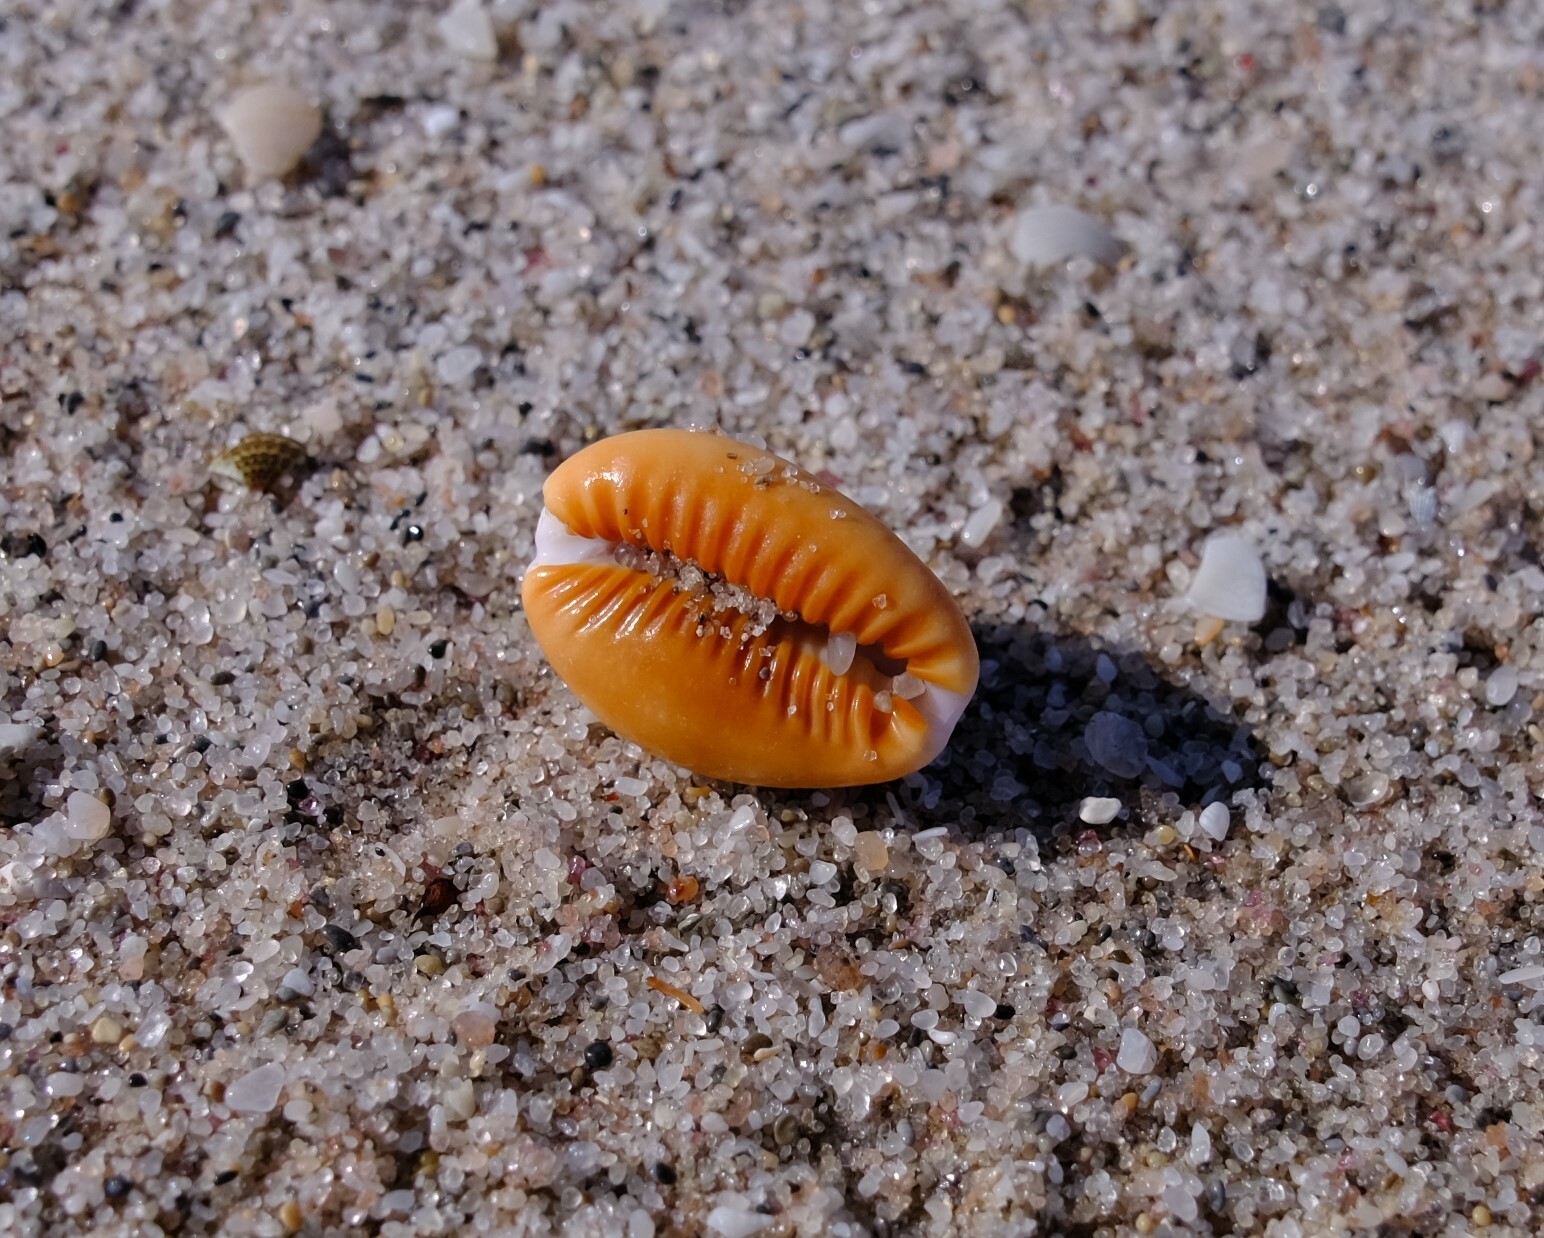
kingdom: Animalia
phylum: Mollusca
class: Gastropoda
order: Littorinimorpha
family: Cypraeidae
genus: Naria
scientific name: Naria helvola
